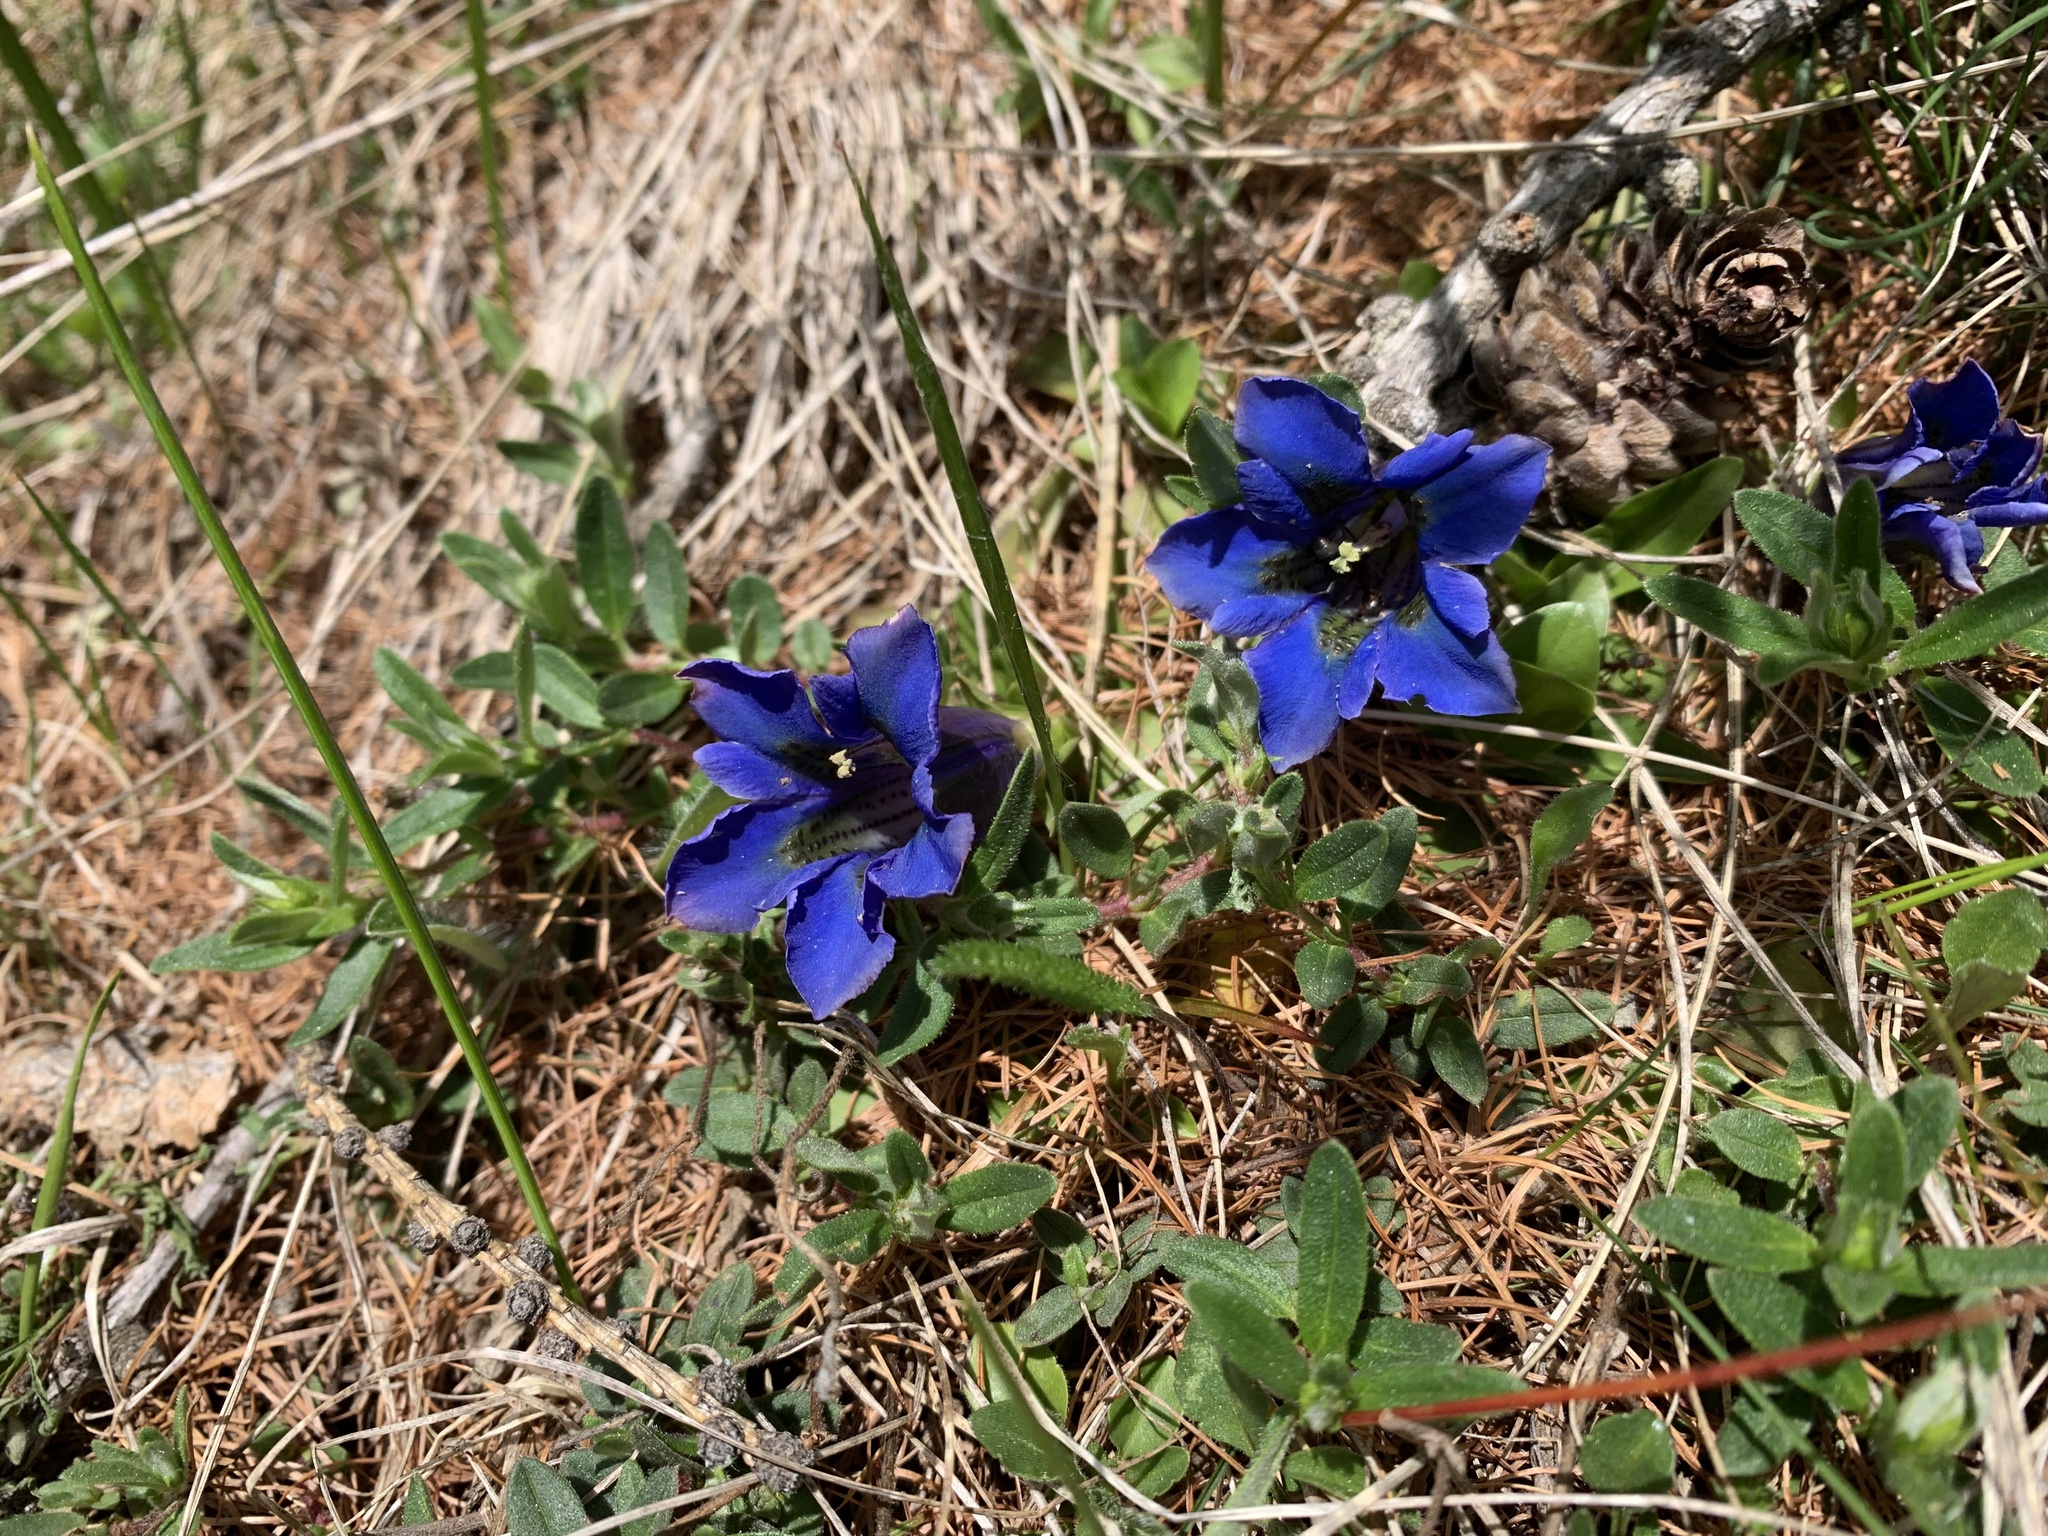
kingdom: Plantae
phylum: Tracheophyta
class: Magnoliopsida
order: Gentianales
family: Gentianaceae
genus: Gentiana
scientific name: Gentiana acaulis
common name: Trumpet gentian
